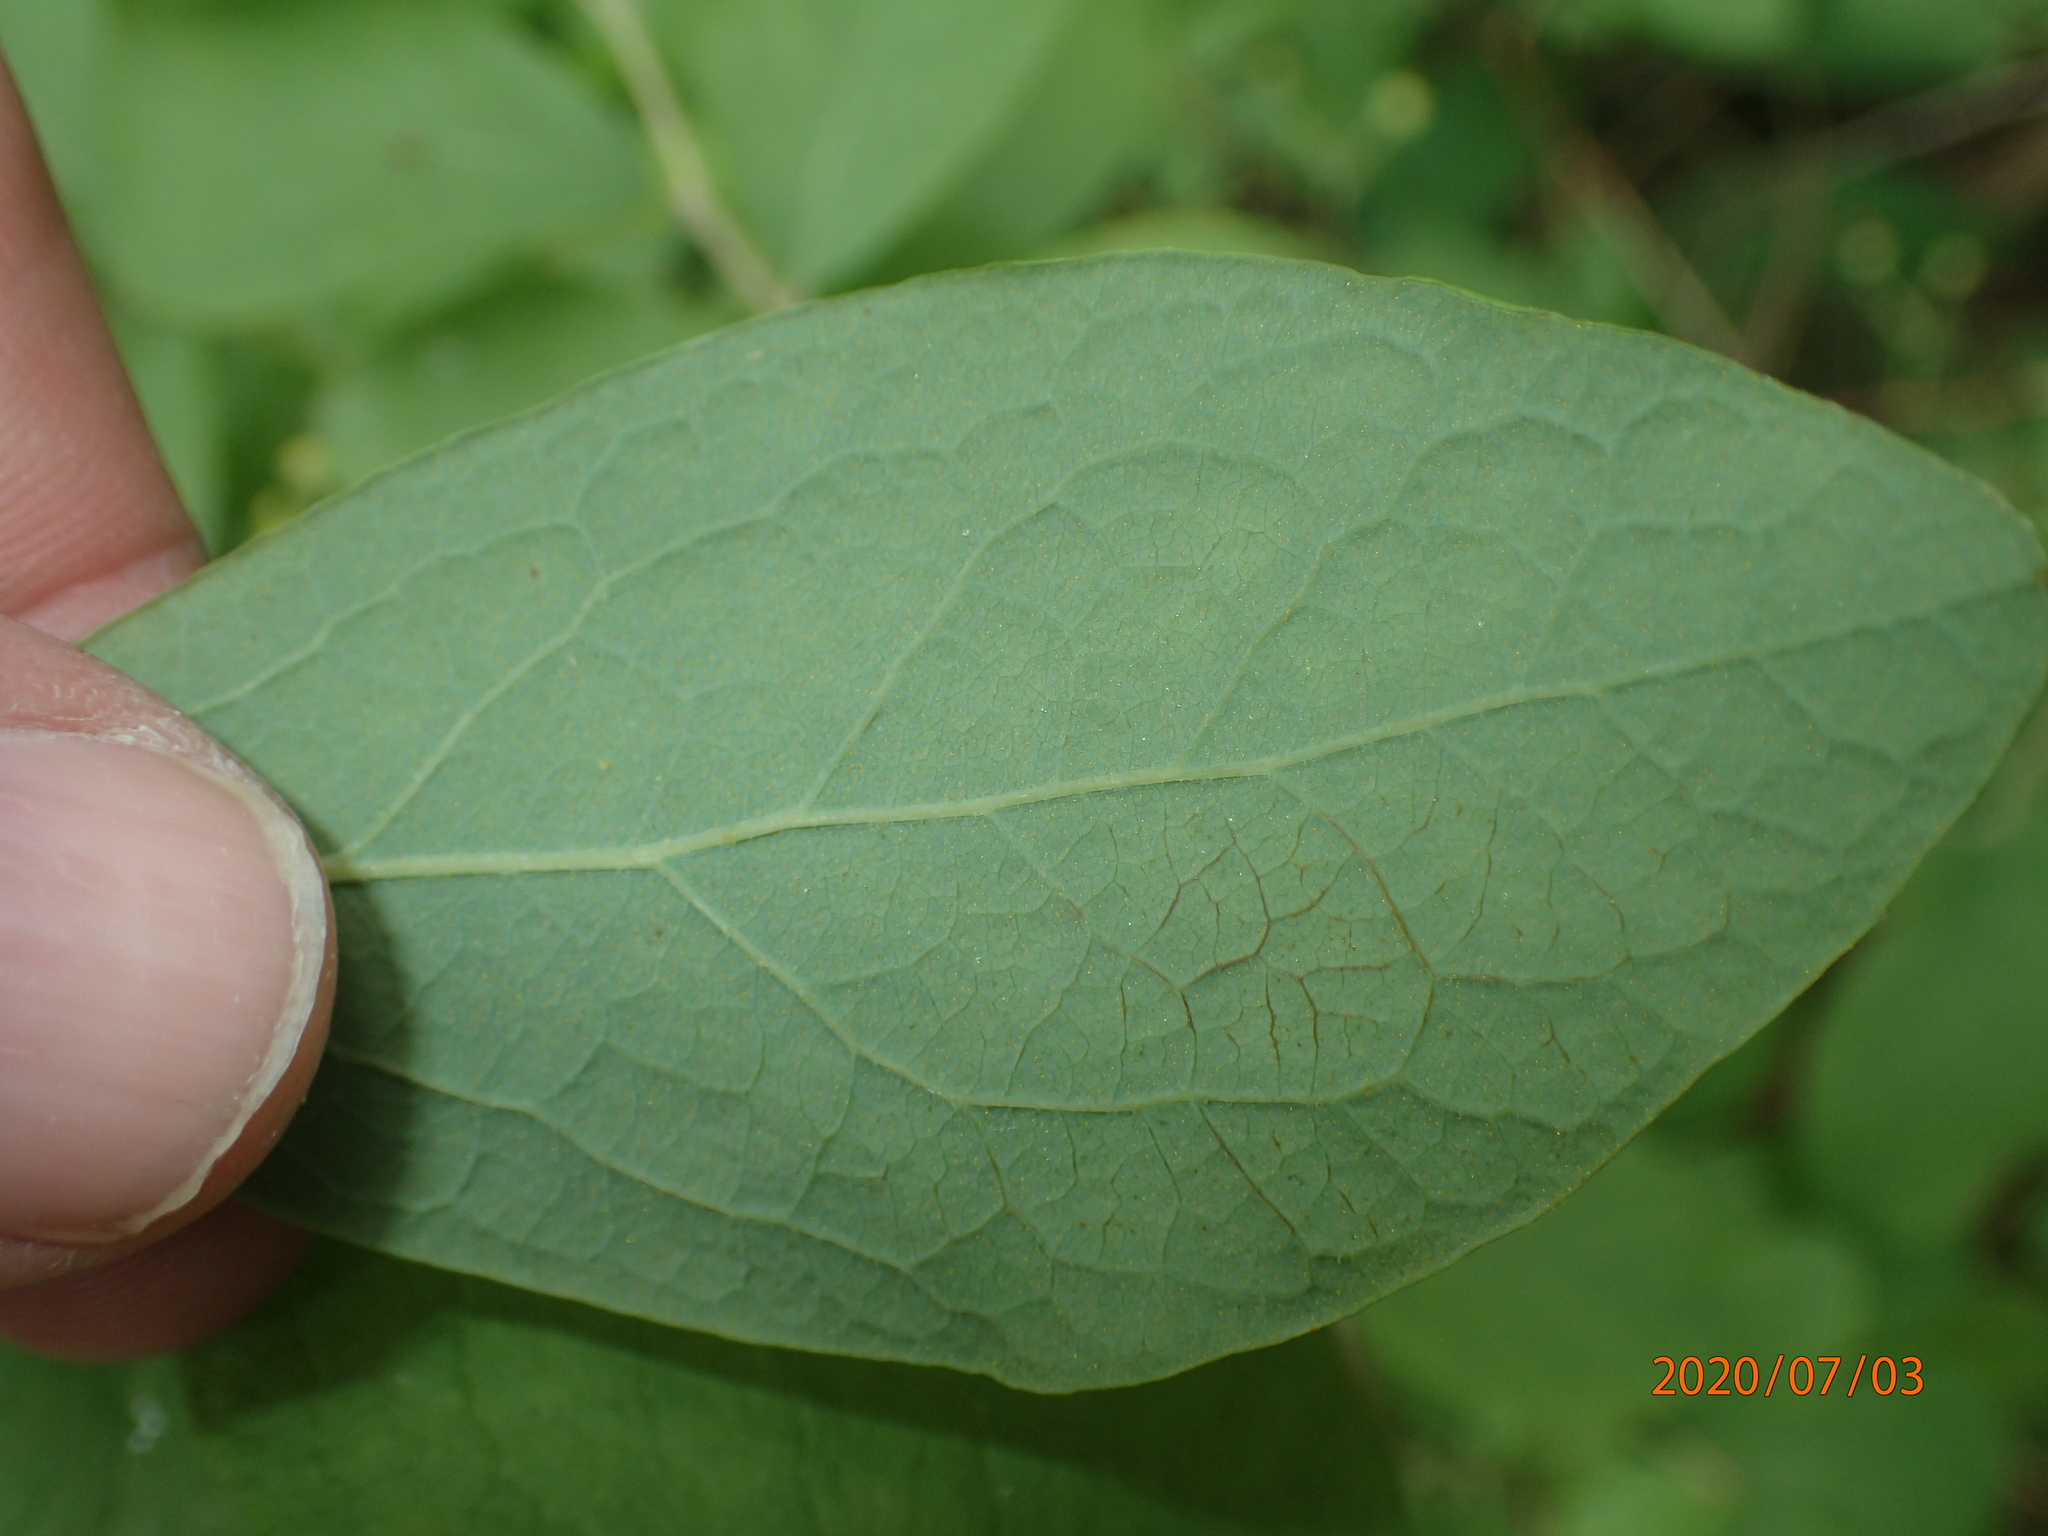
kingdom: Plantae
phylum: Tracheophyta
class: Magnoliopsida
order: Ericales
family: Ericaceae
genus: Gaylussacia
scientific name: Gaylussacia frondosa
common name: Dangleberry
